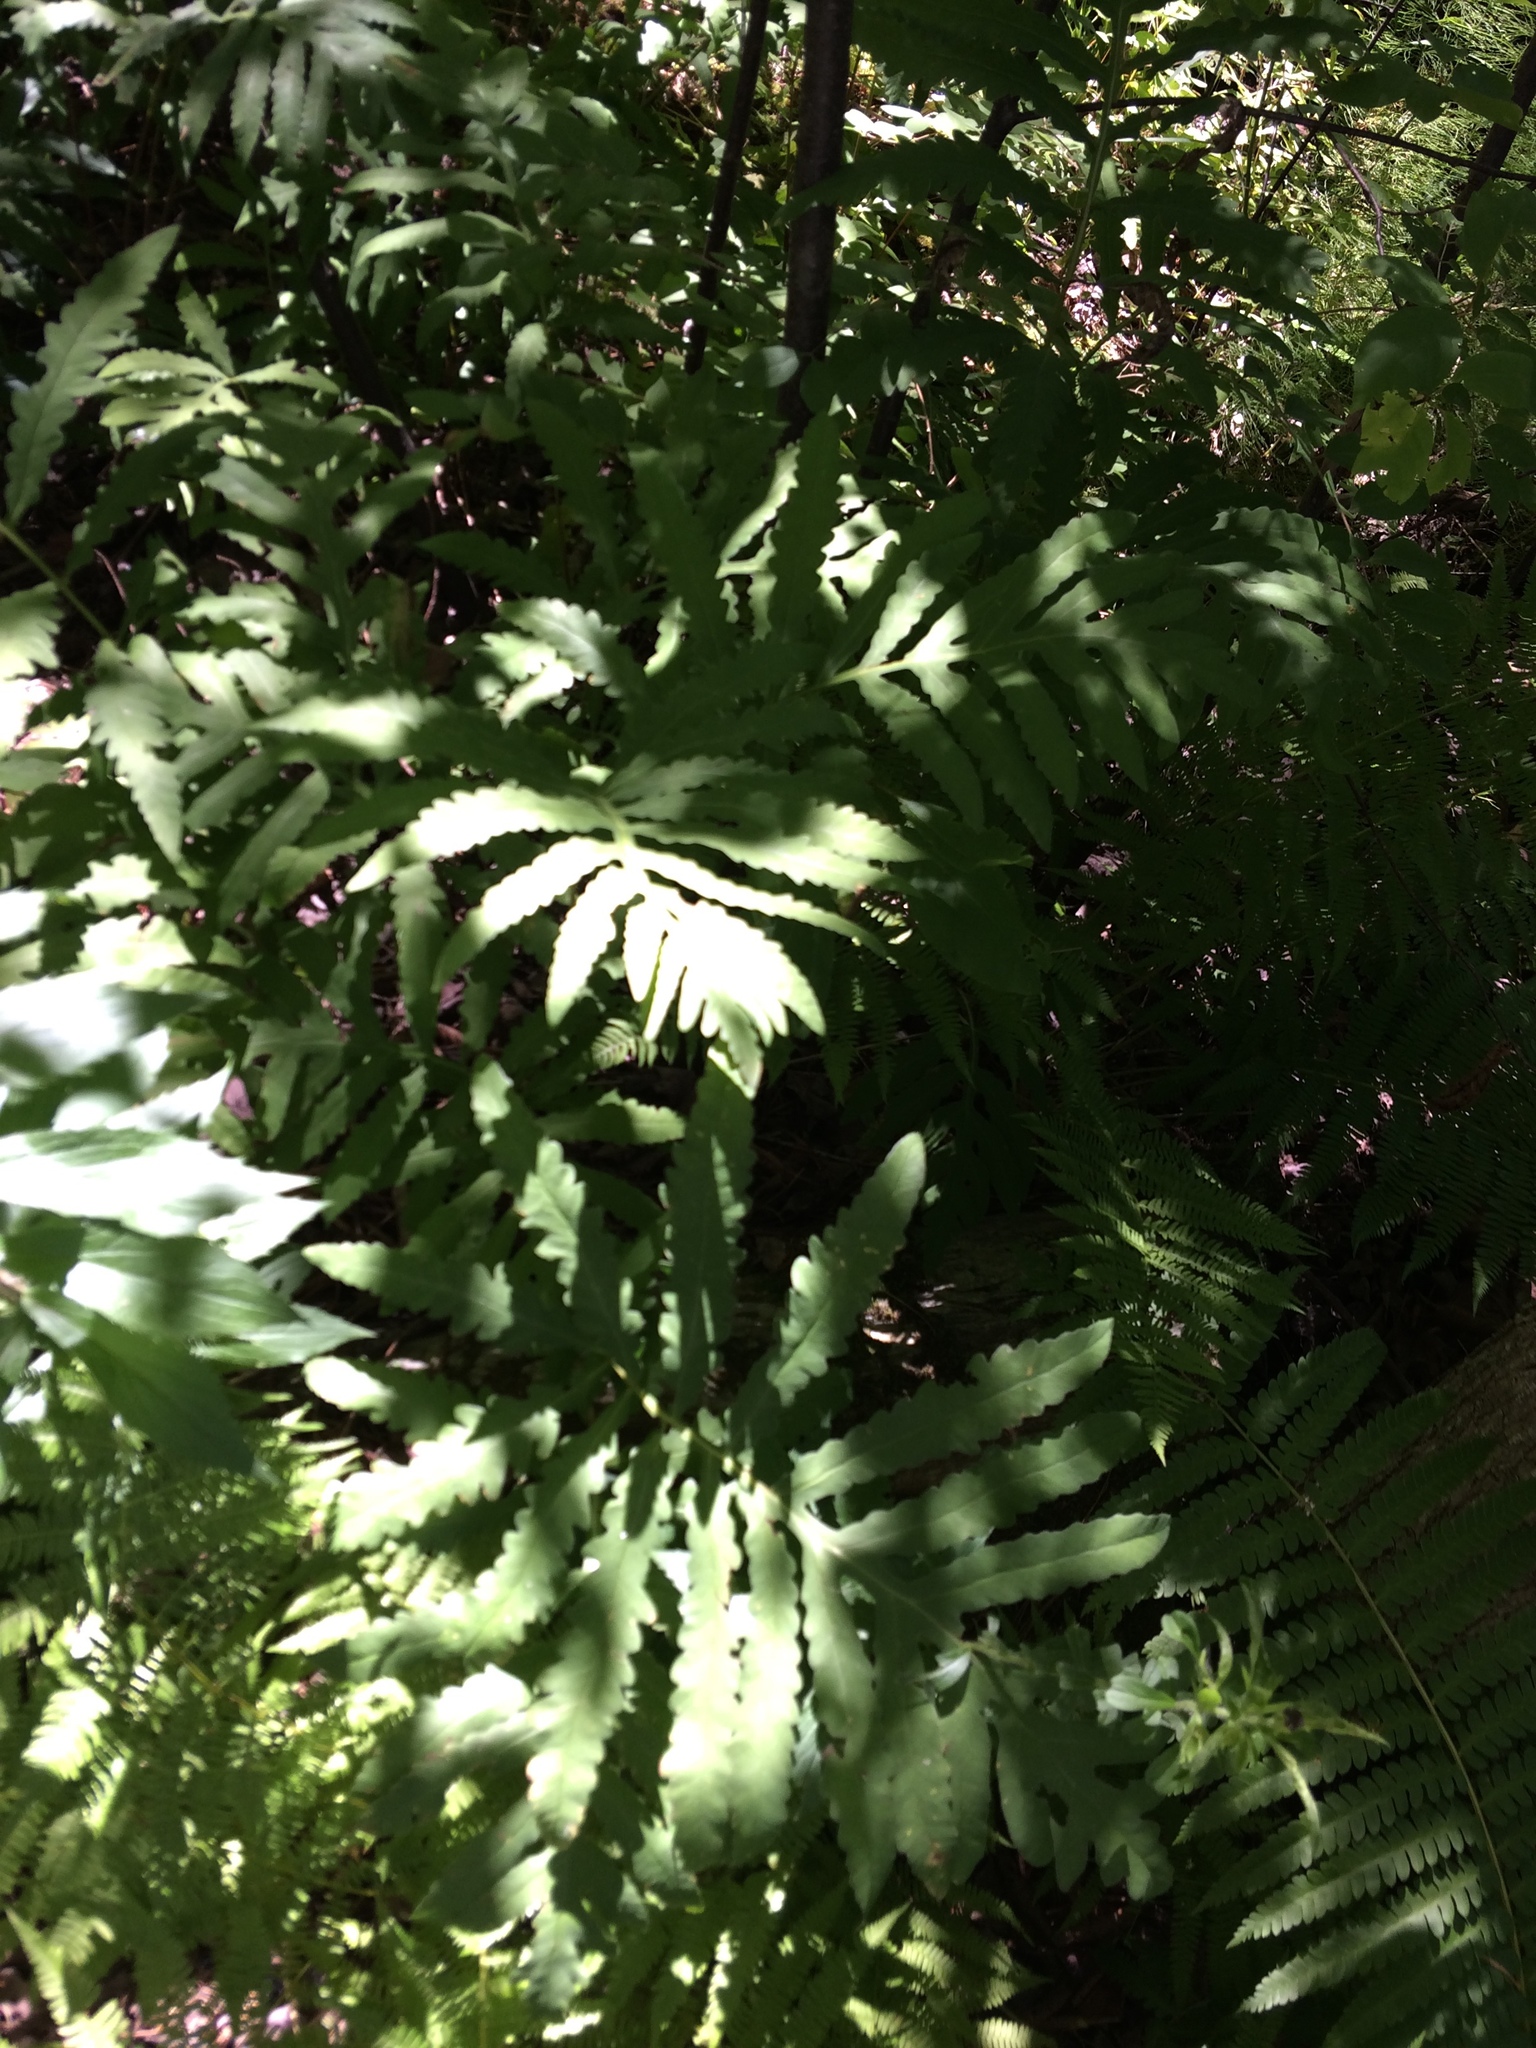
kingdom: Plantae
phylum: Tracheophyta
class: Polypodiopsida
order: Polypodiales
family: Onocleaceae
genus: Onoclea
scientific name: Onoclea sensibilis
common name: Sensitive fern
